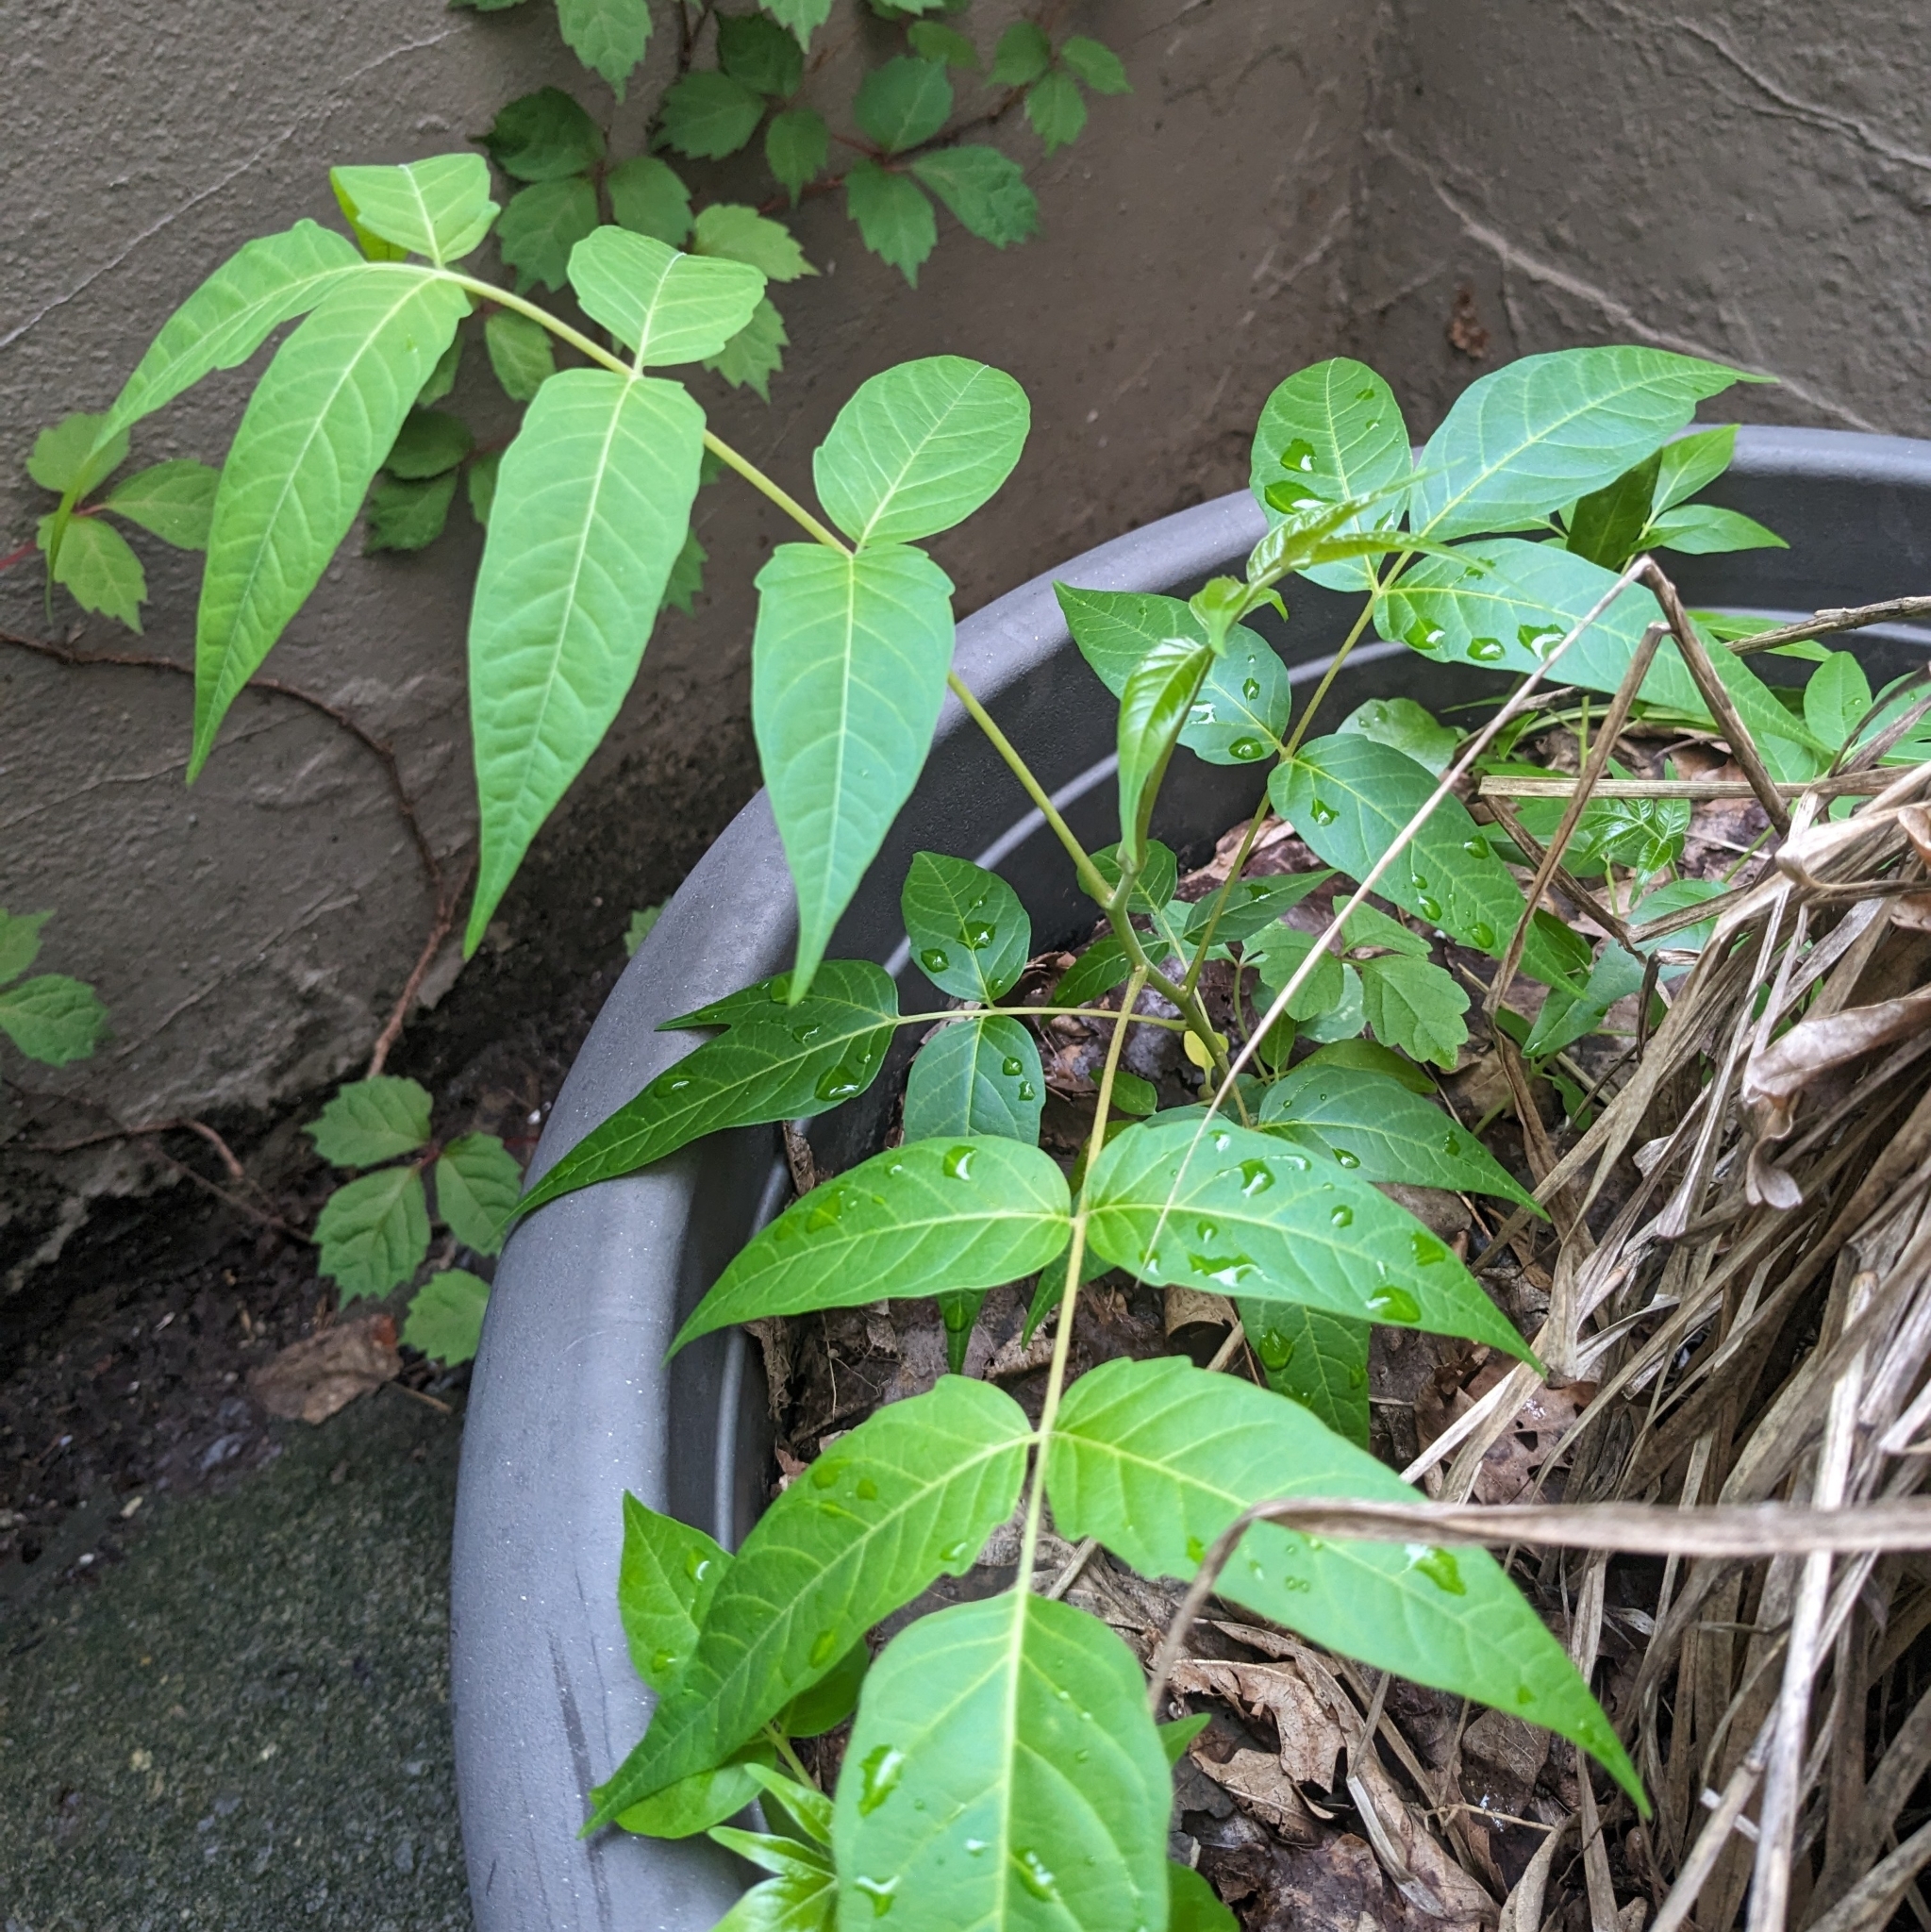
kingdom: Plantae
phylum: Tracheophyta
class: Magnoliopsida
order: Sapindales
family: Simaroubaceae
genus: Ailanthus
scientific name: Ailanthus altissima
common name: Tree-of-heaven
